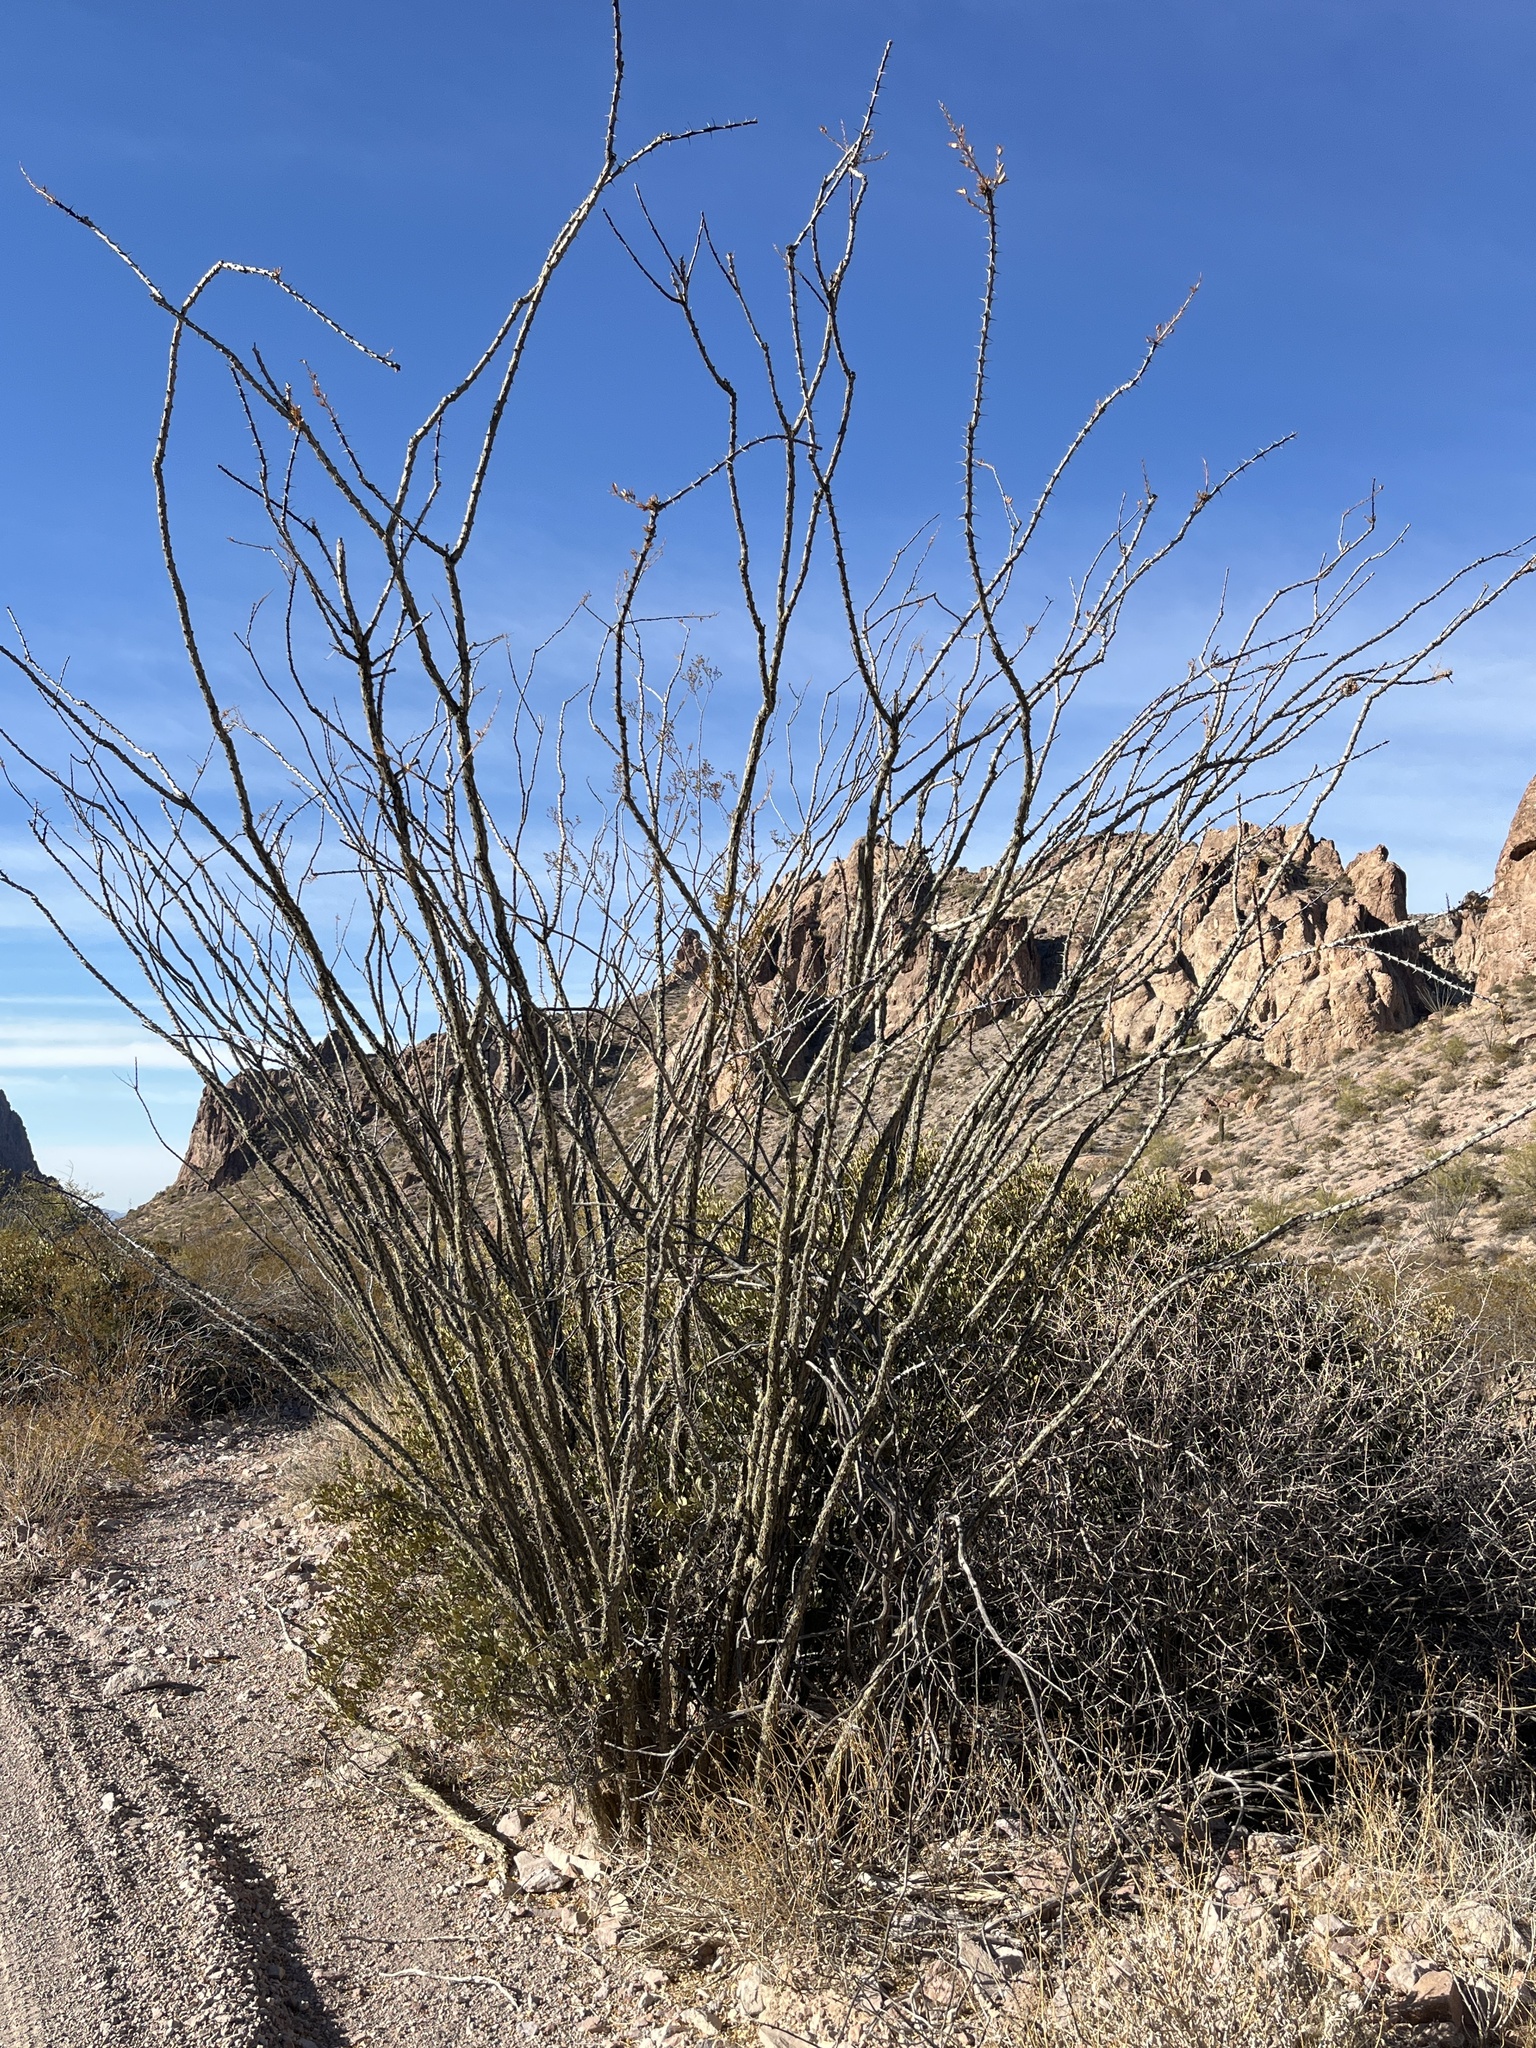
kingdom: Plantae
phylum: Tracheophyta
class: Magnoliopsida
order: Ericales
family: Fouquieriaceae
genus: Fouquieria
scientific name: Fouquieria splendens
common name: Vine-cactus
